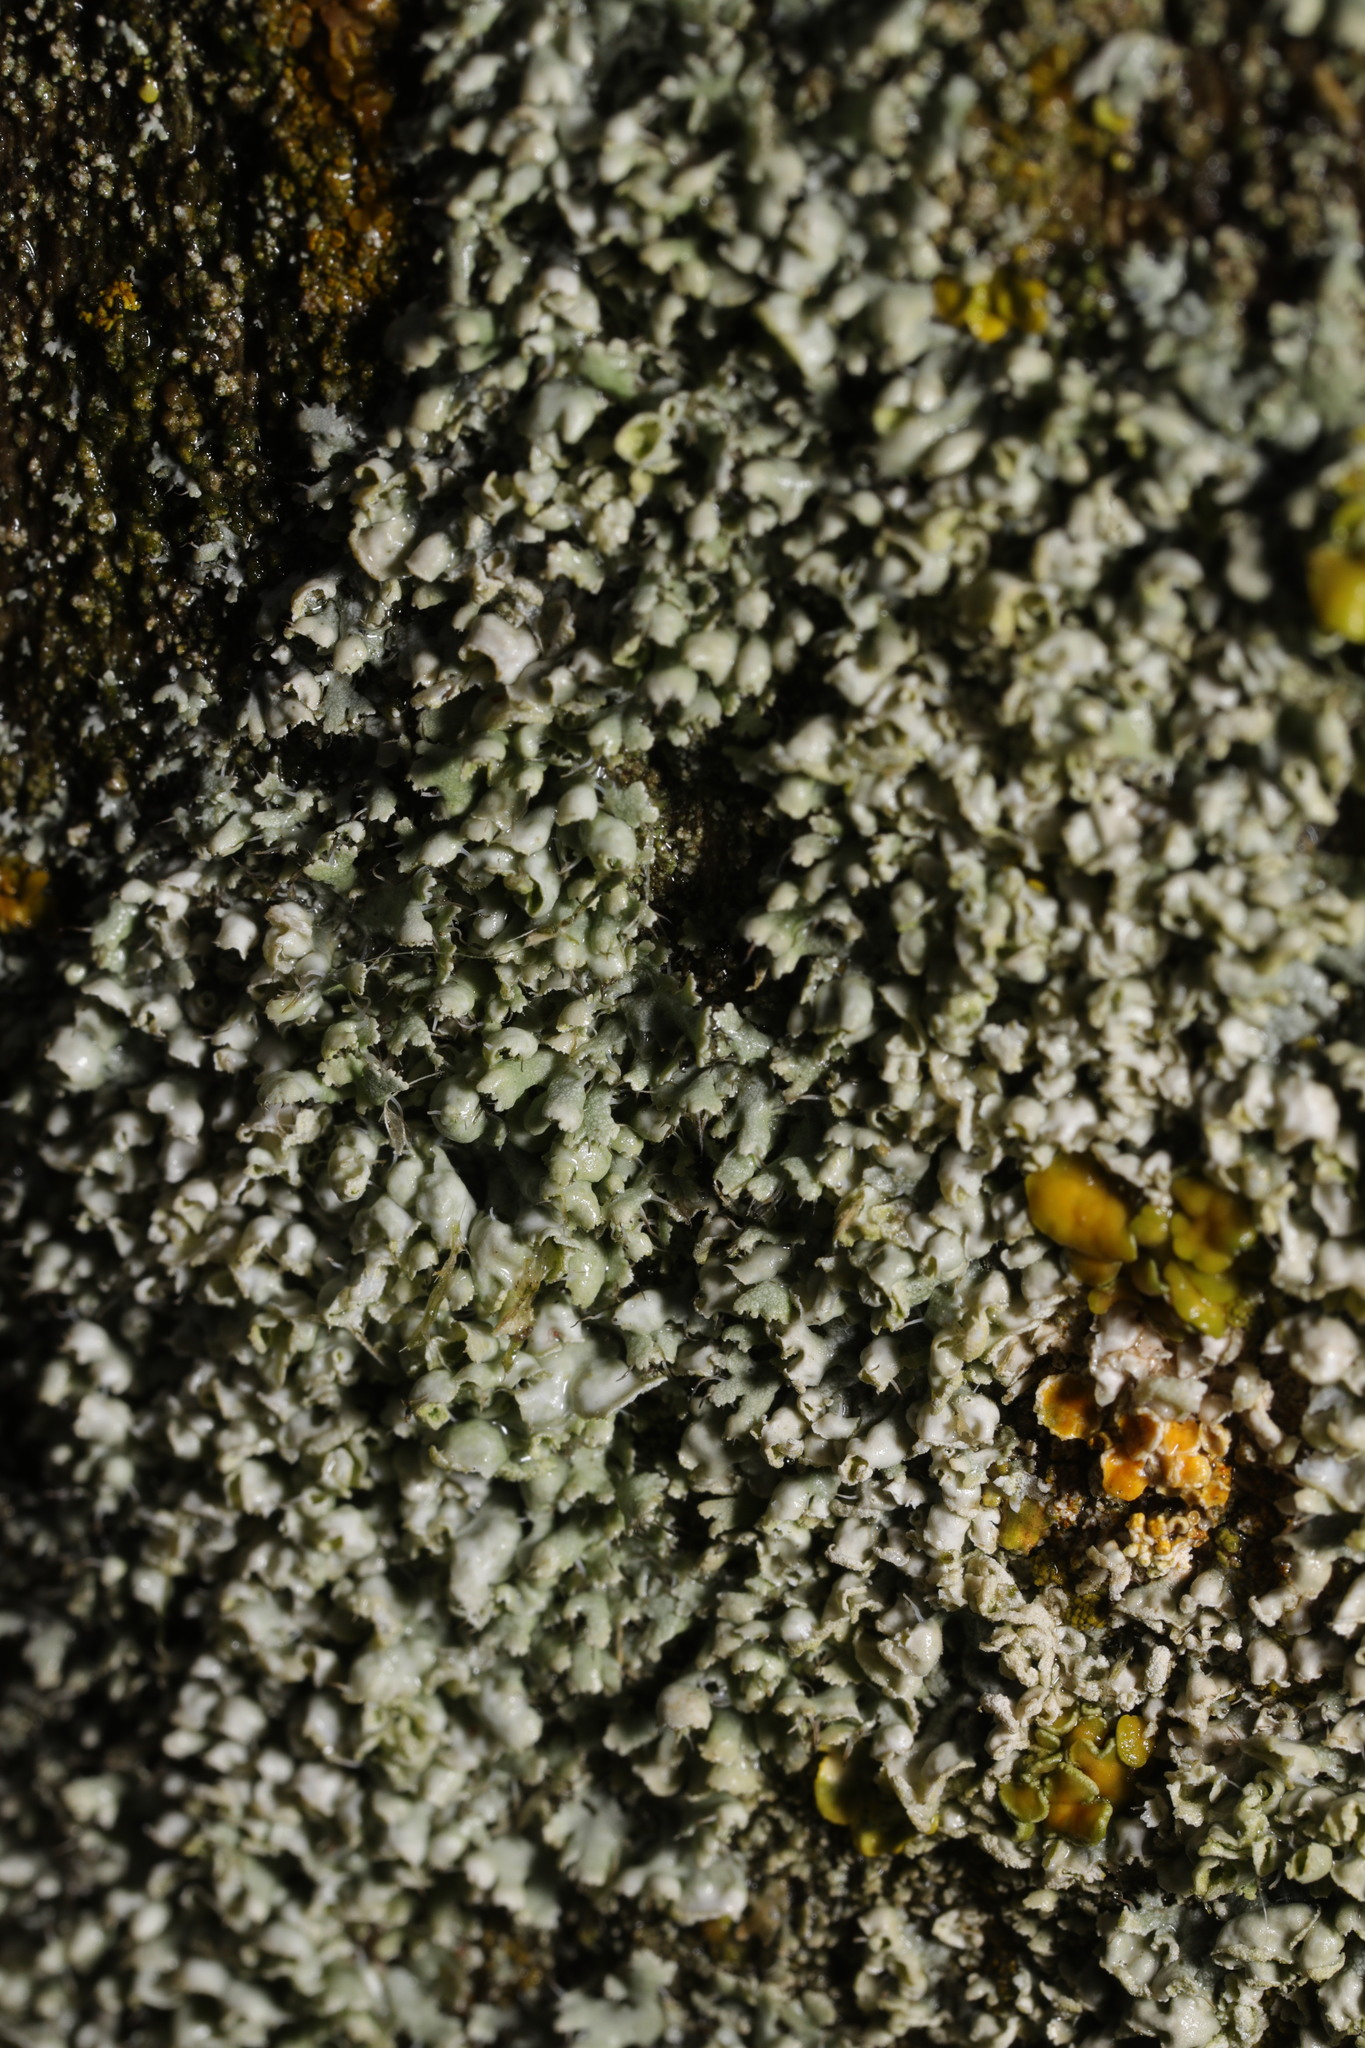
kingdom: Fungi
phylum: Ascomycota
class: Lecanoromycetes
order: Caliciales
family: Physciaceae
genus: Physcia
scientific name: Physcia adscendens
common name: Hooded rosette lichen
